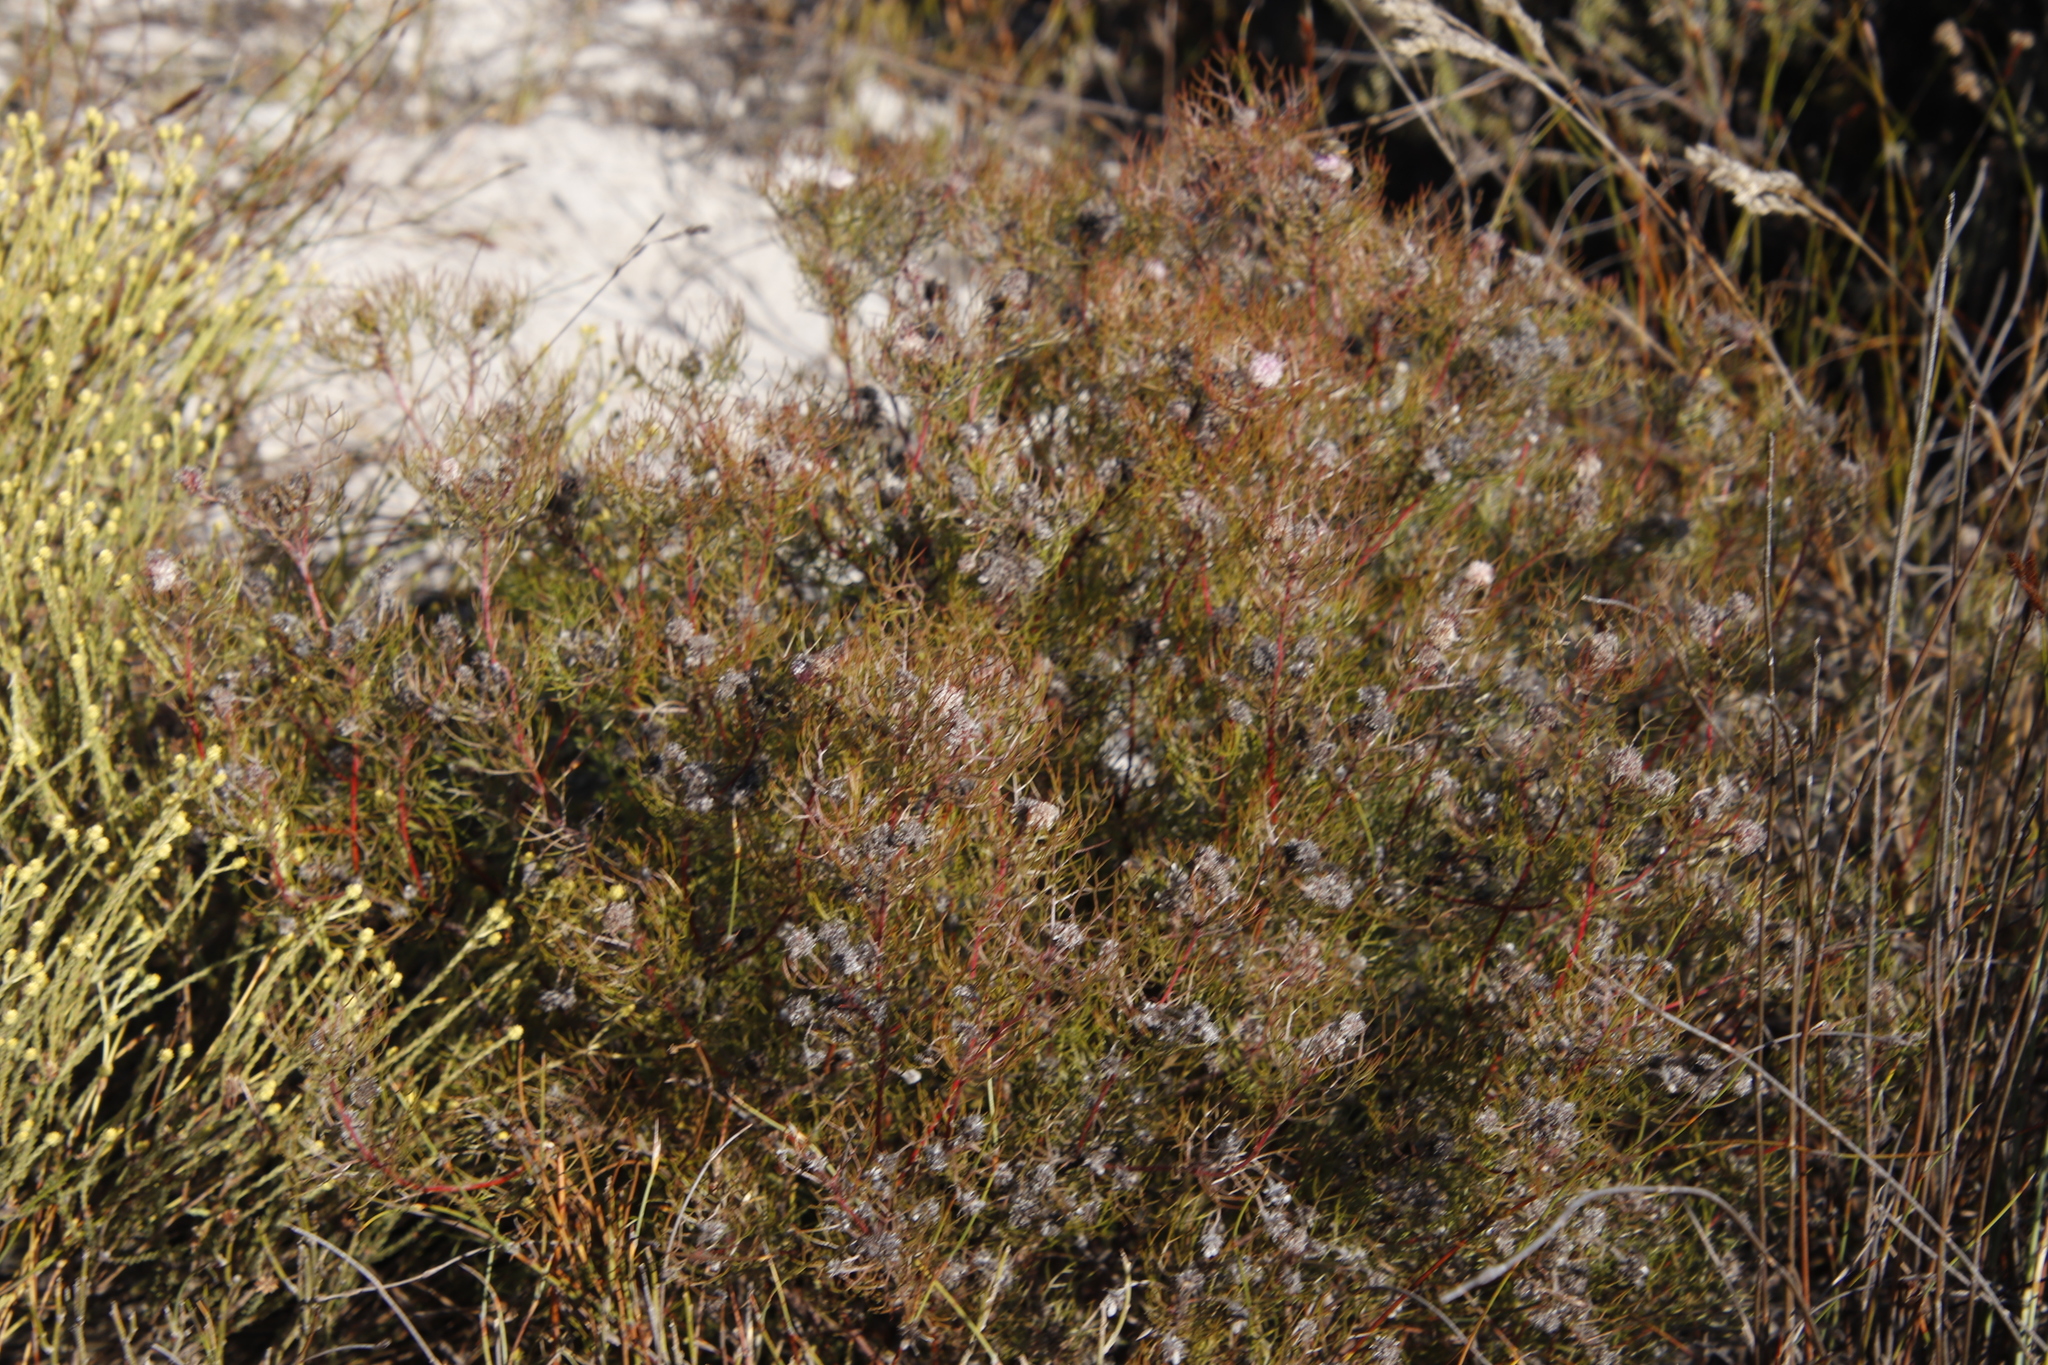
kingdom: Plantae
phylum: Tracheophyta
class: Magnoliopsida
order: Proteales
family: Proteaceae
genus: Serruria
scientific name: Serruria fasciflora
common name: Common pin spiderhead
